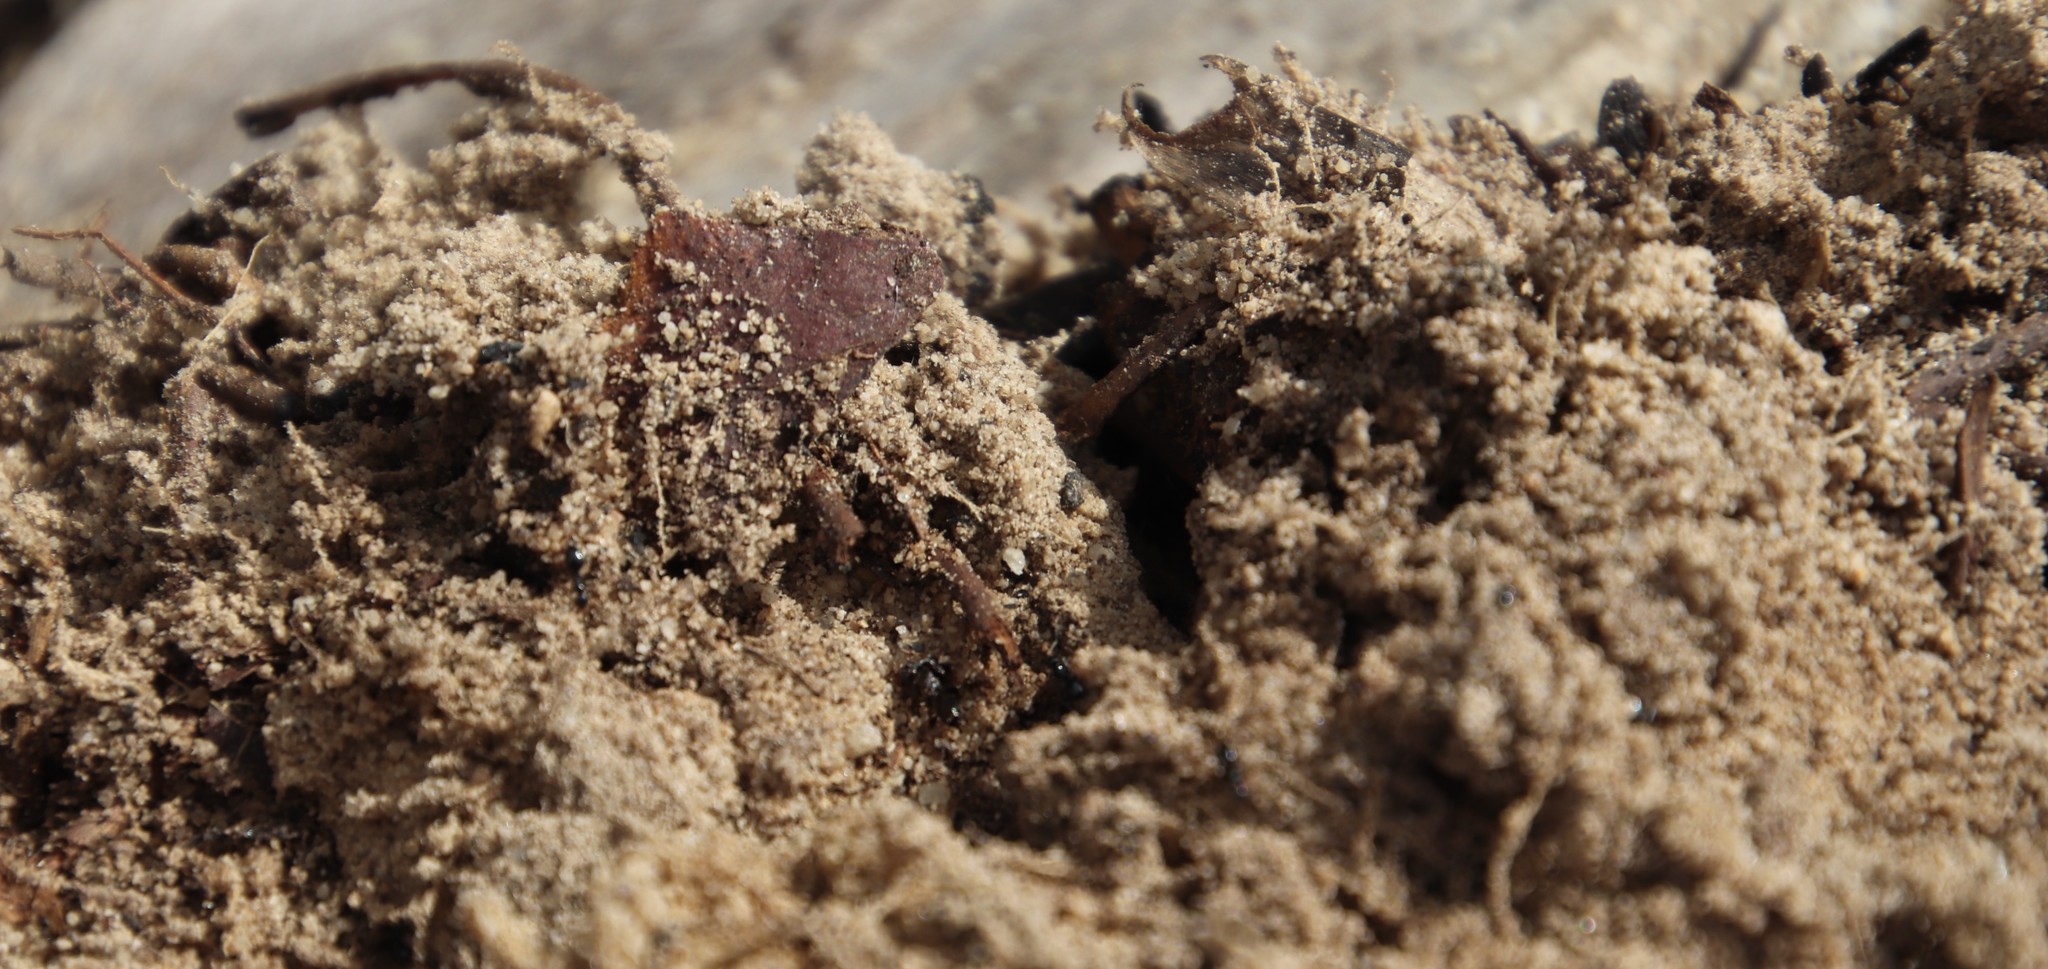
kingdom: Animalia
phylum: Arthropoda
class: Insecta
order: Hymenoptera
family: Formicidae
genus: Lepisiota
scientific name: Lepisiota capensis
